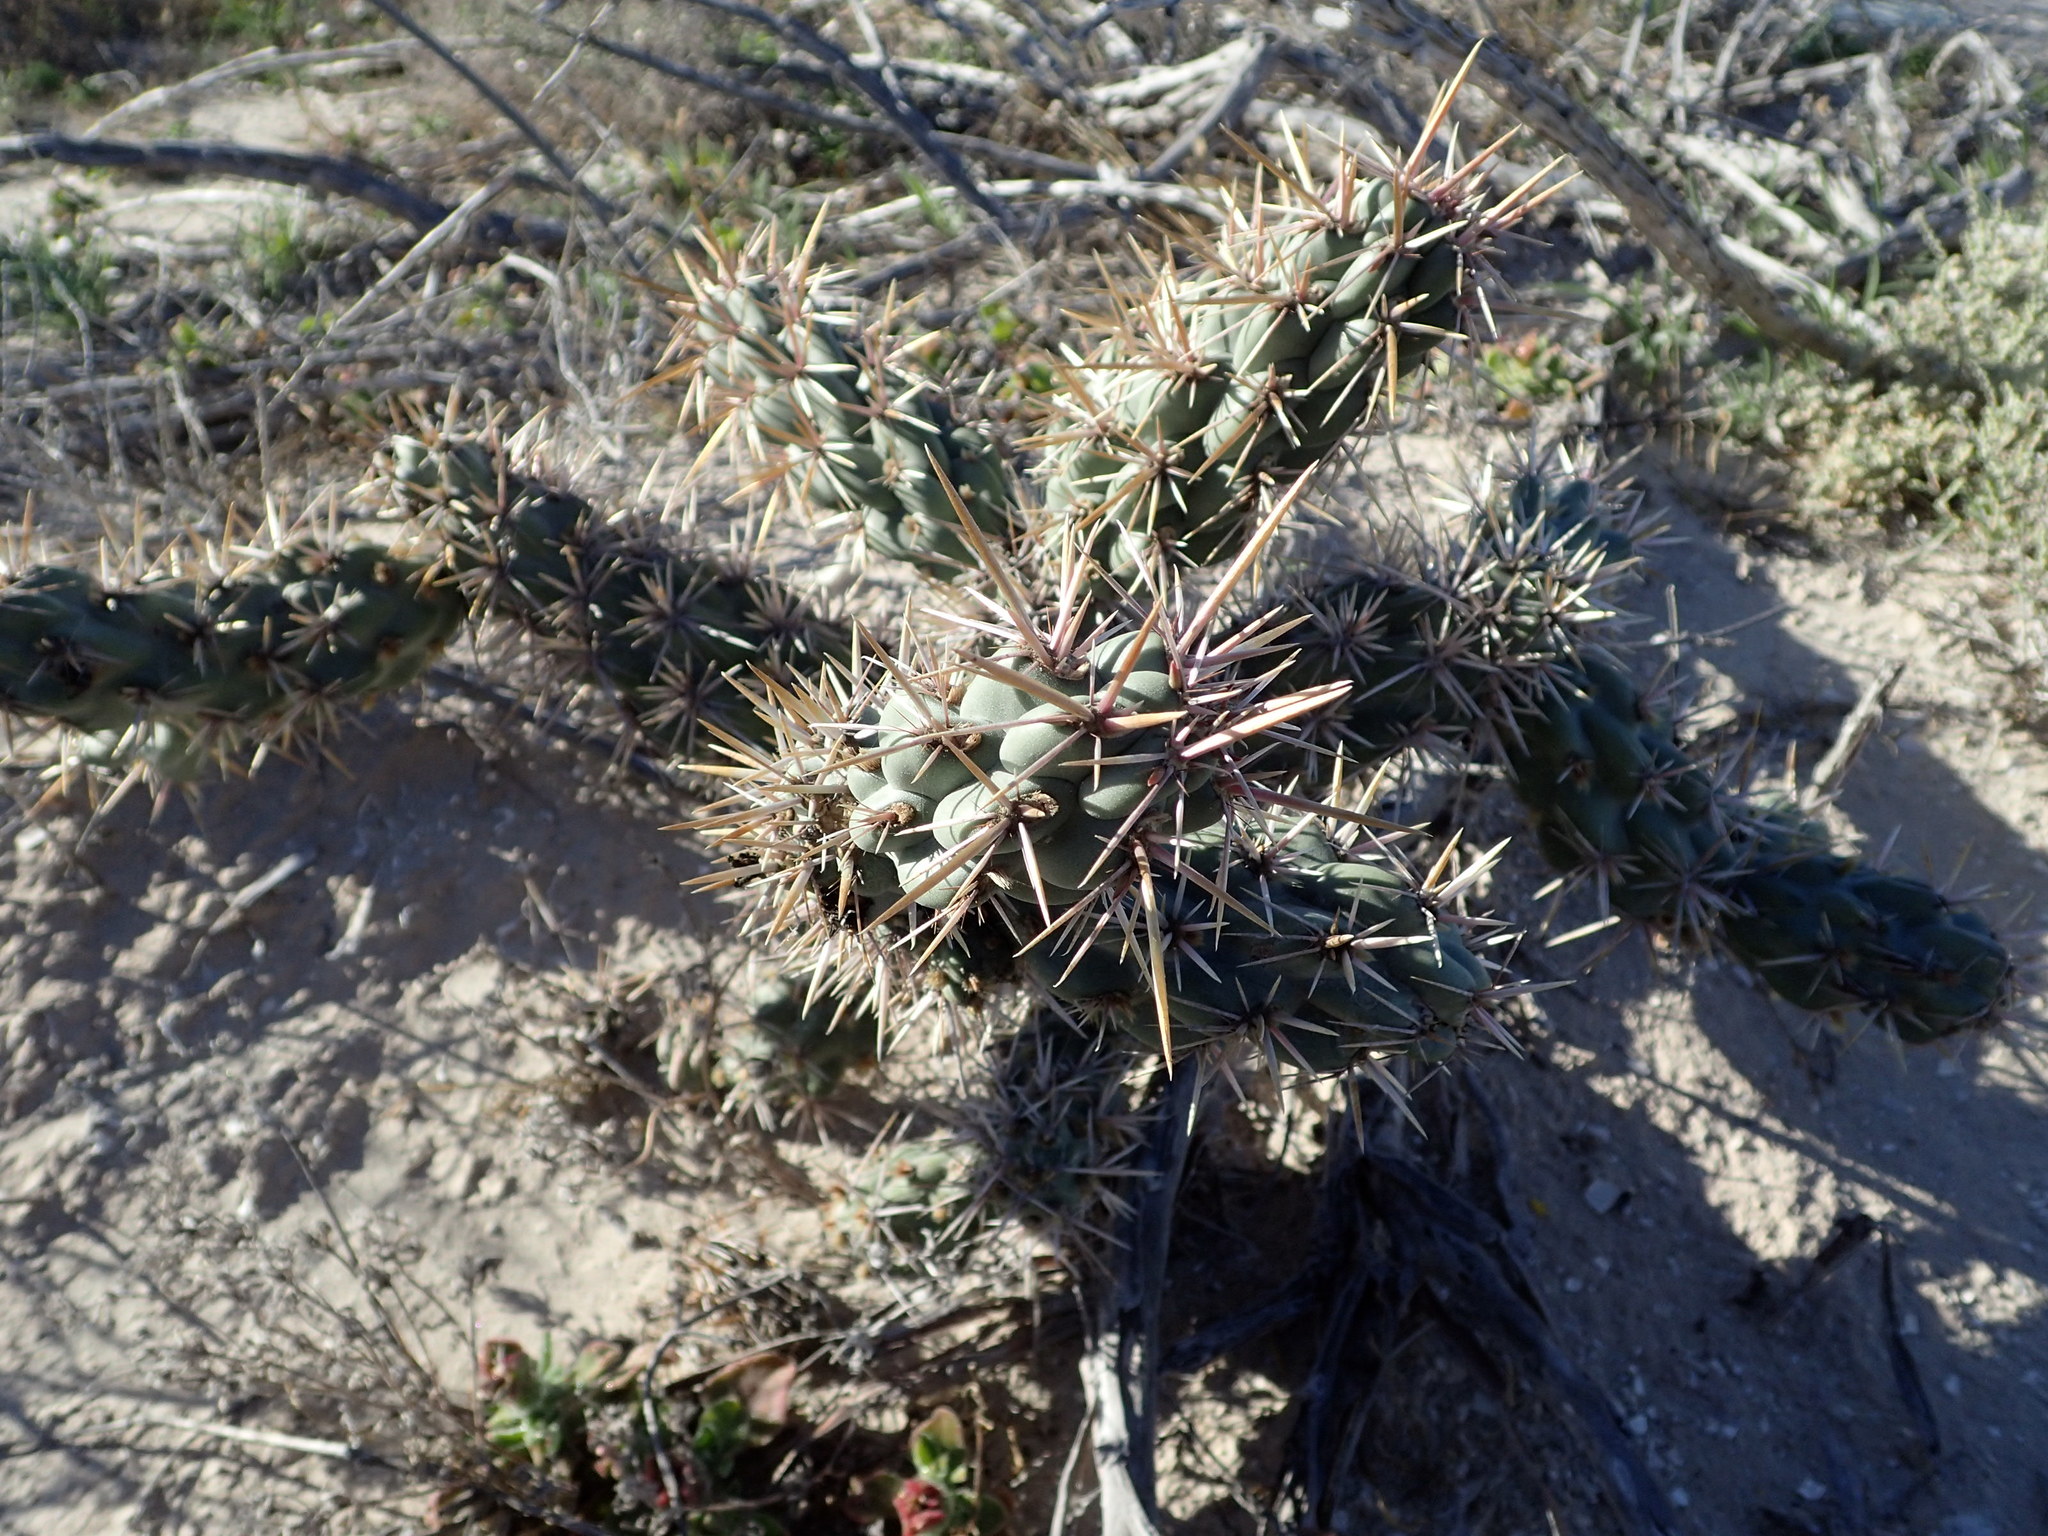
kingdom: Plantae
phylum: Tracheophyta
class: Magnoliopsida
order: Caryophyllales
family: Cactaceae
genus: Cylindropuntia
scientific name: Cylindropuntia cholla
